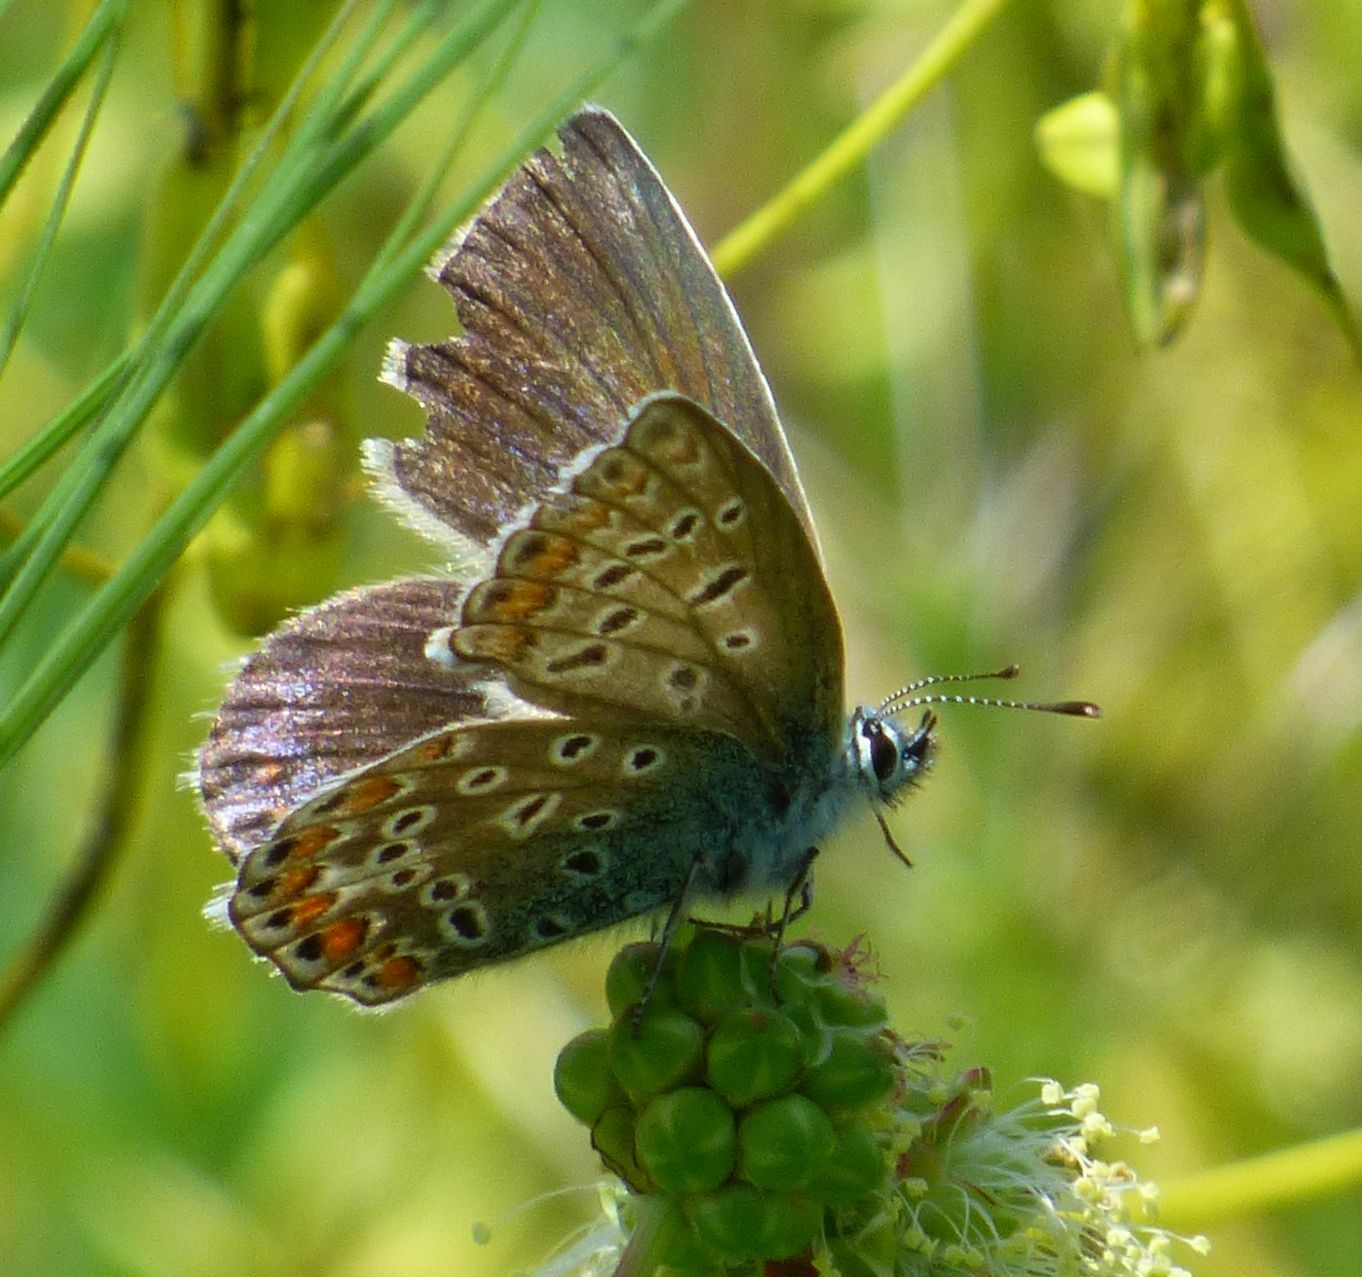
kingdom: Animalia
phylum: Arthropoda
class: Insecta
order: Lepidoptera
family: Lycaenidae
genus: Polyommatus
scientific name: Polyommatus icarus
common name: Common blue
